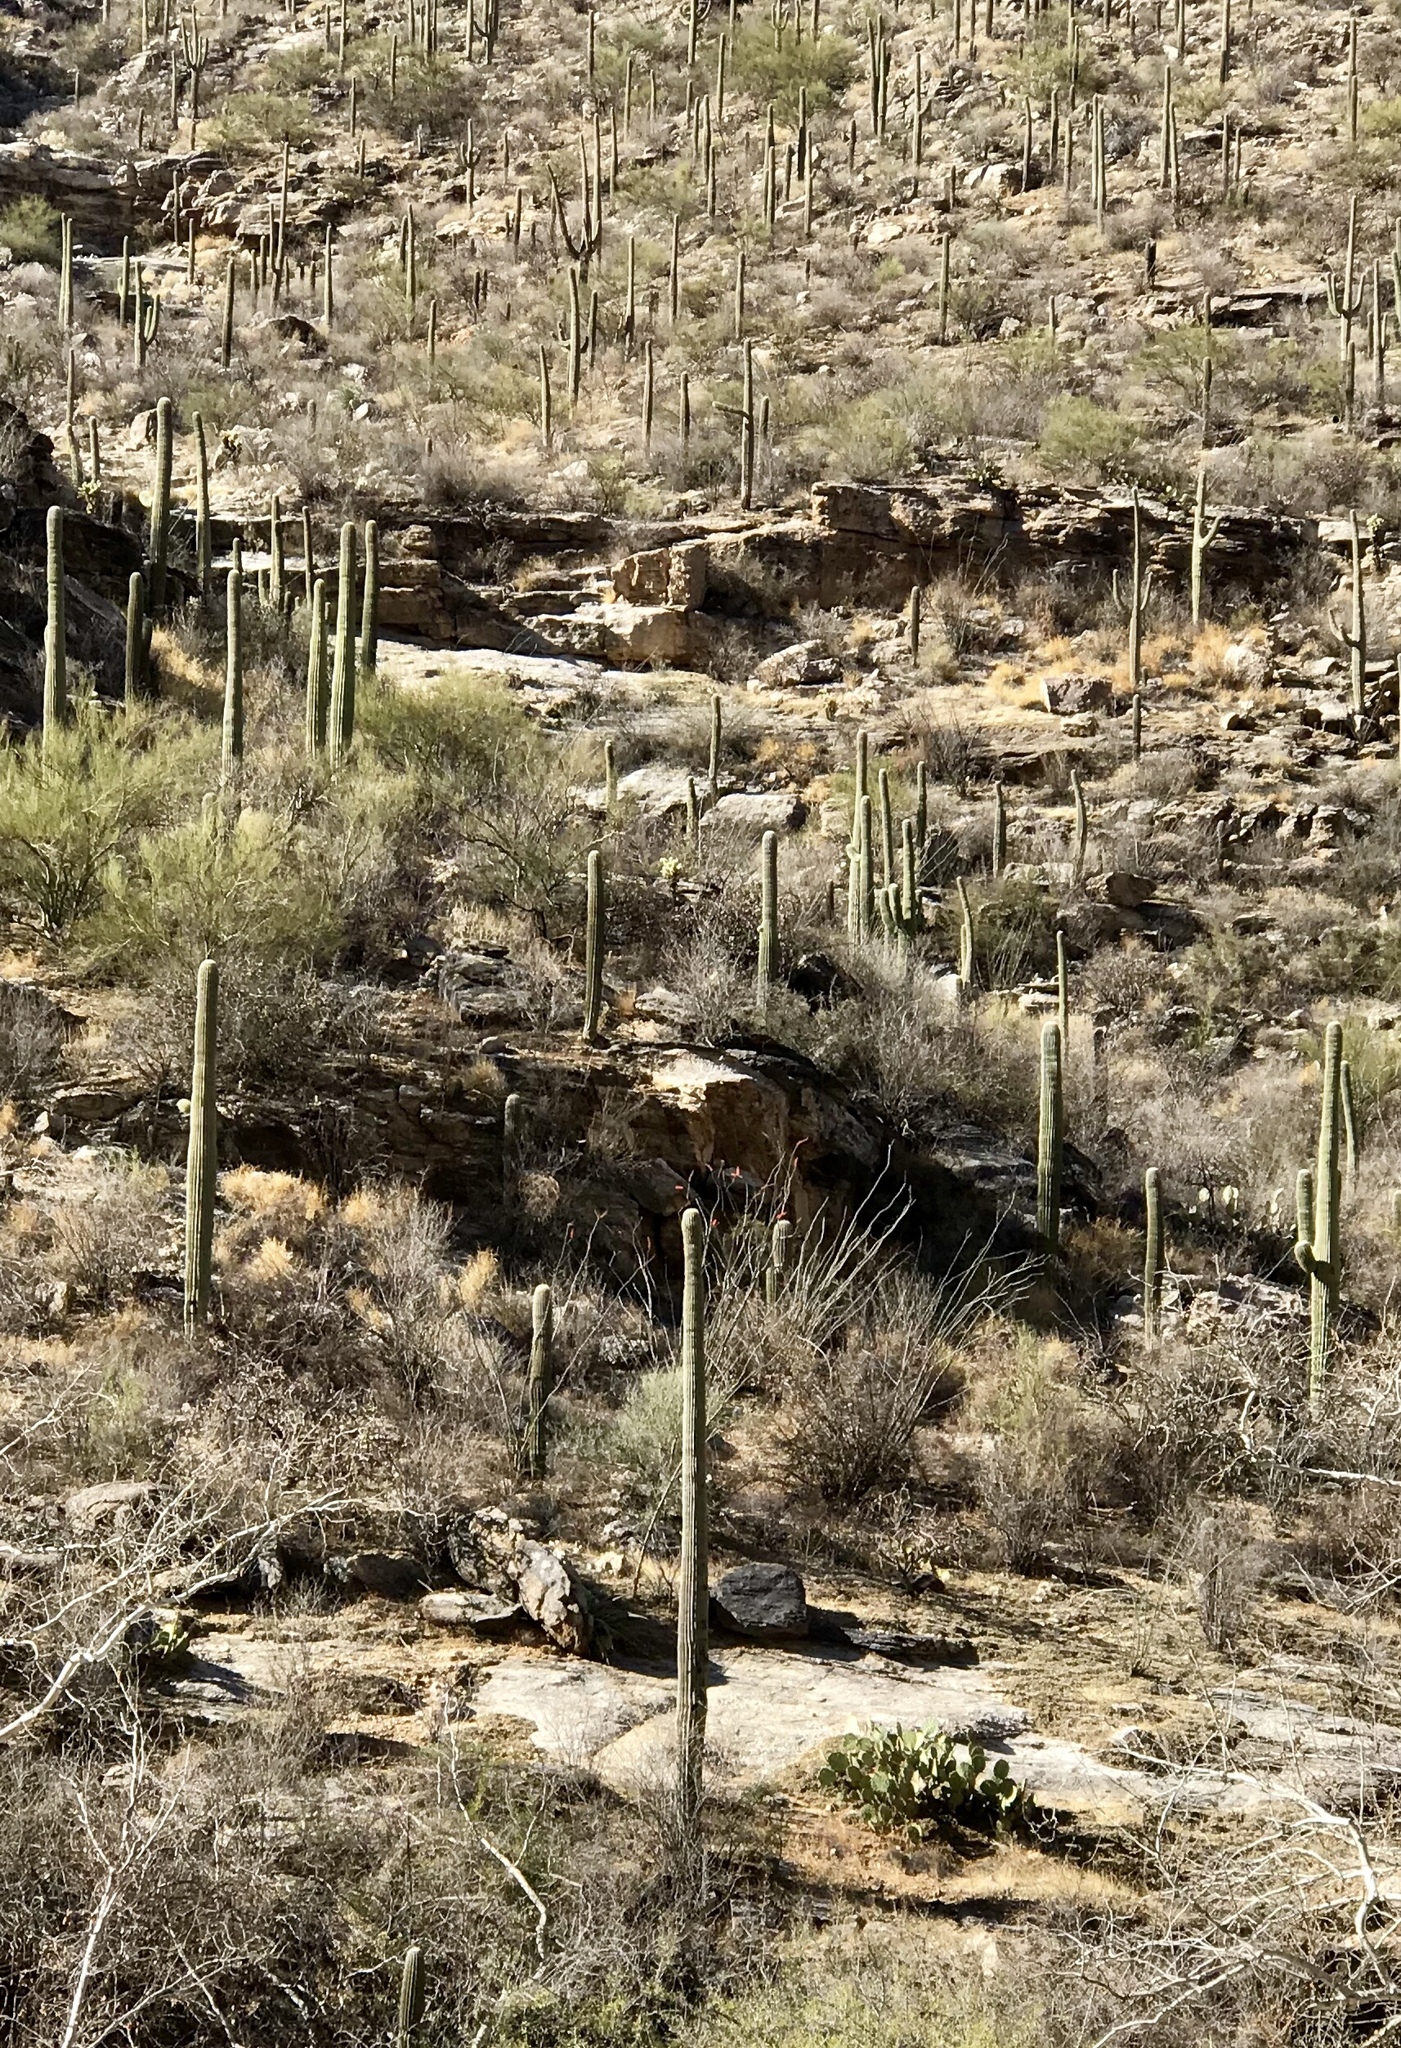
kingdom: Plantae
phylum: Tracheophyta
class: Magnoliopsida
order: Caryophyllales
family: Cactaceae
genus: Carnegiea
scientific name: Carnegiea gigantea
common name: Saguaro
